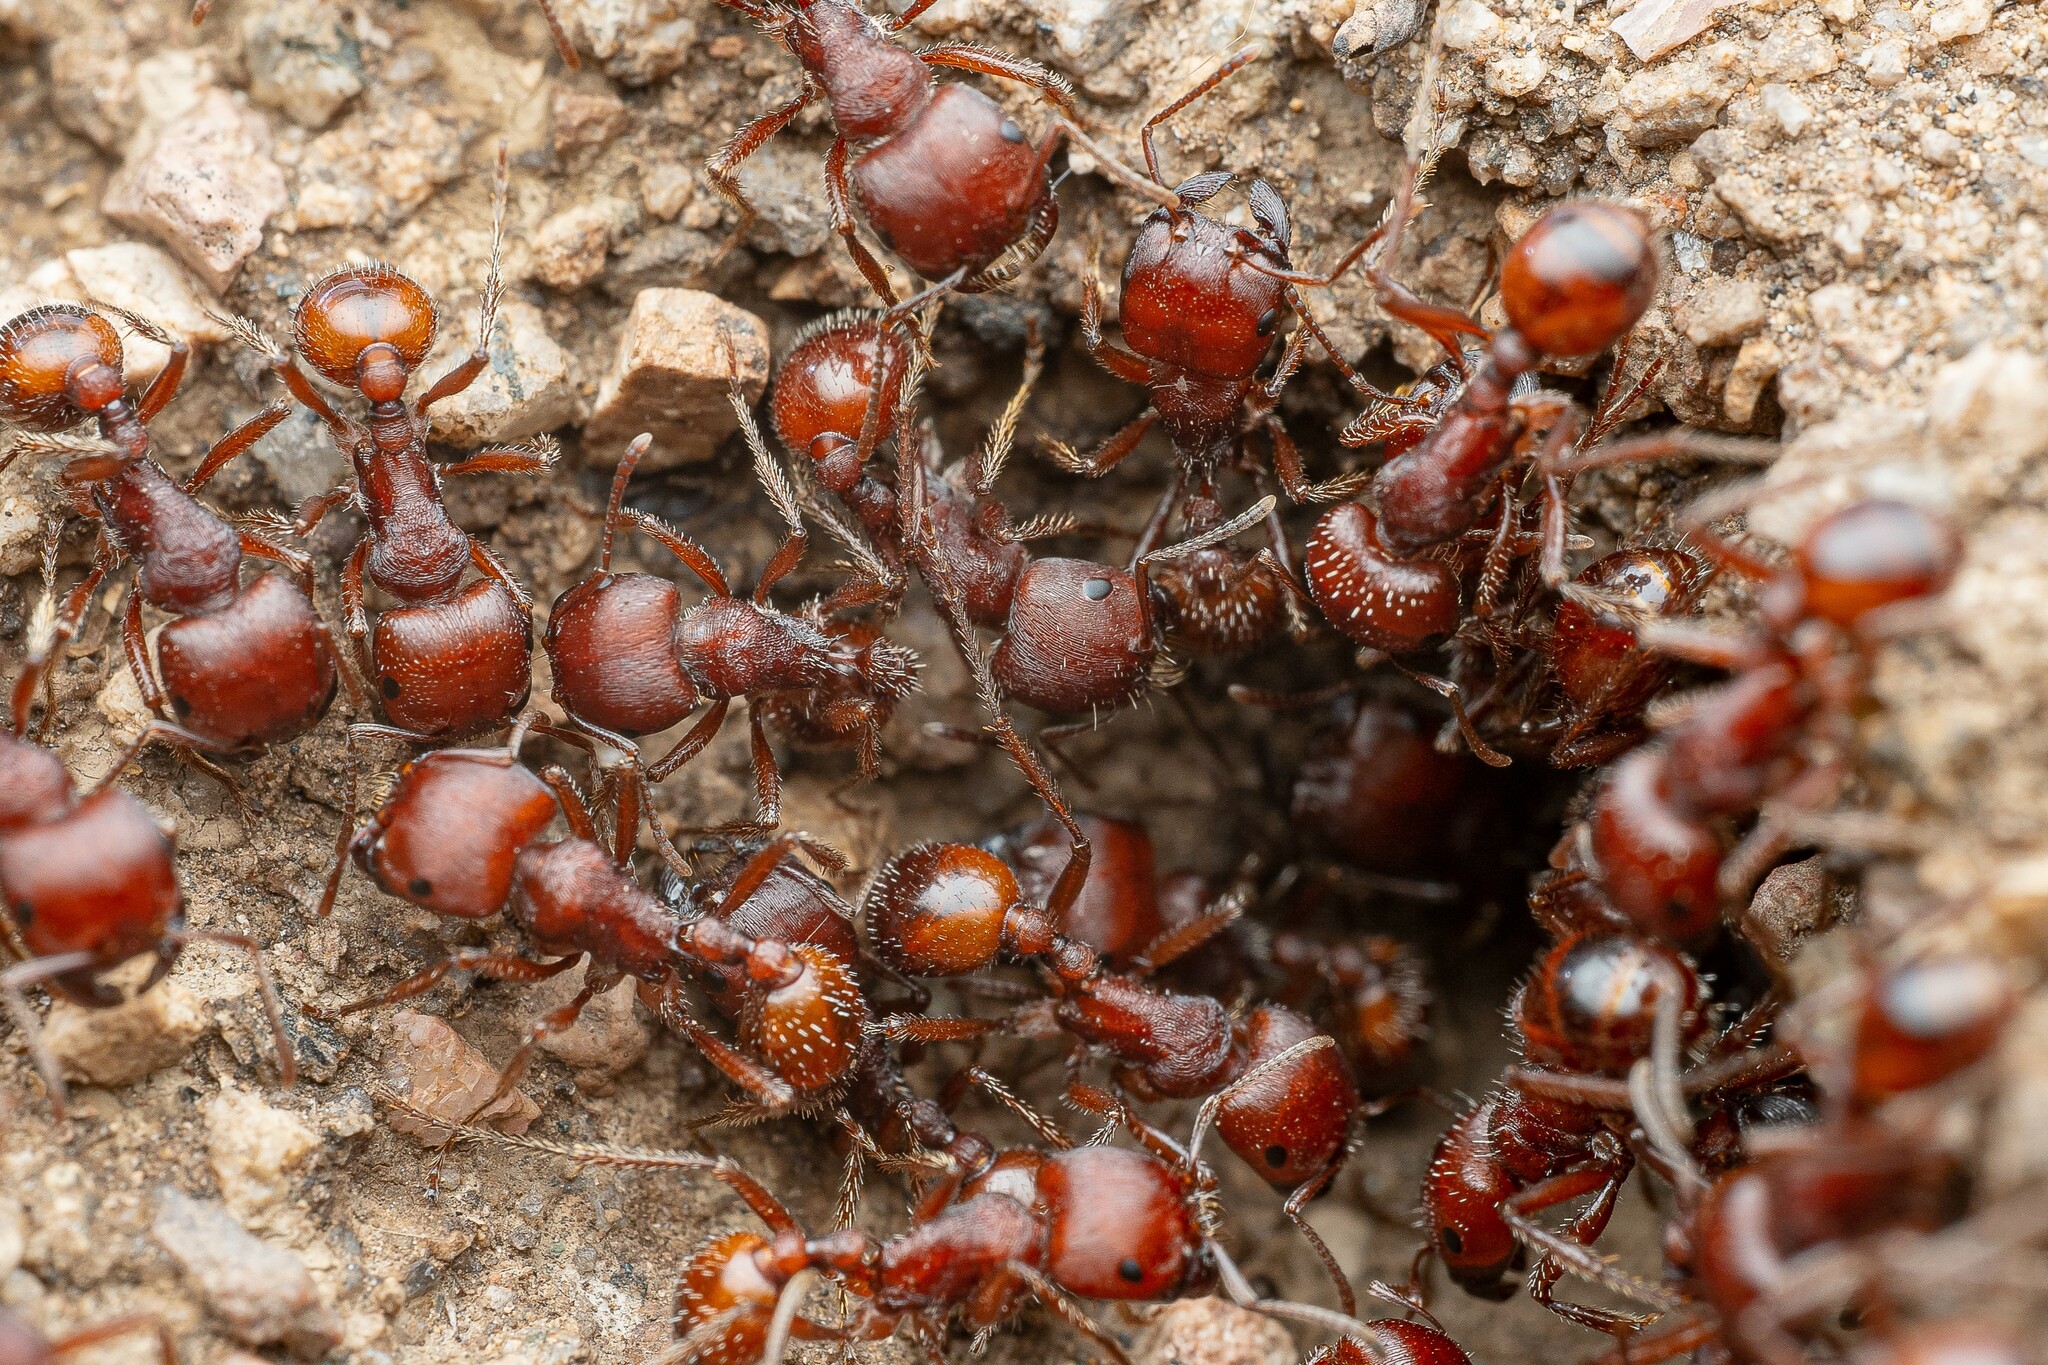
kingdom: Animalia
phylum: Arthropoda
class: Insecta
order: Hymenoptera
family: Formicidae
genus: Pogonomyrmex
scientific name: Pogonomyrmex barbatus
